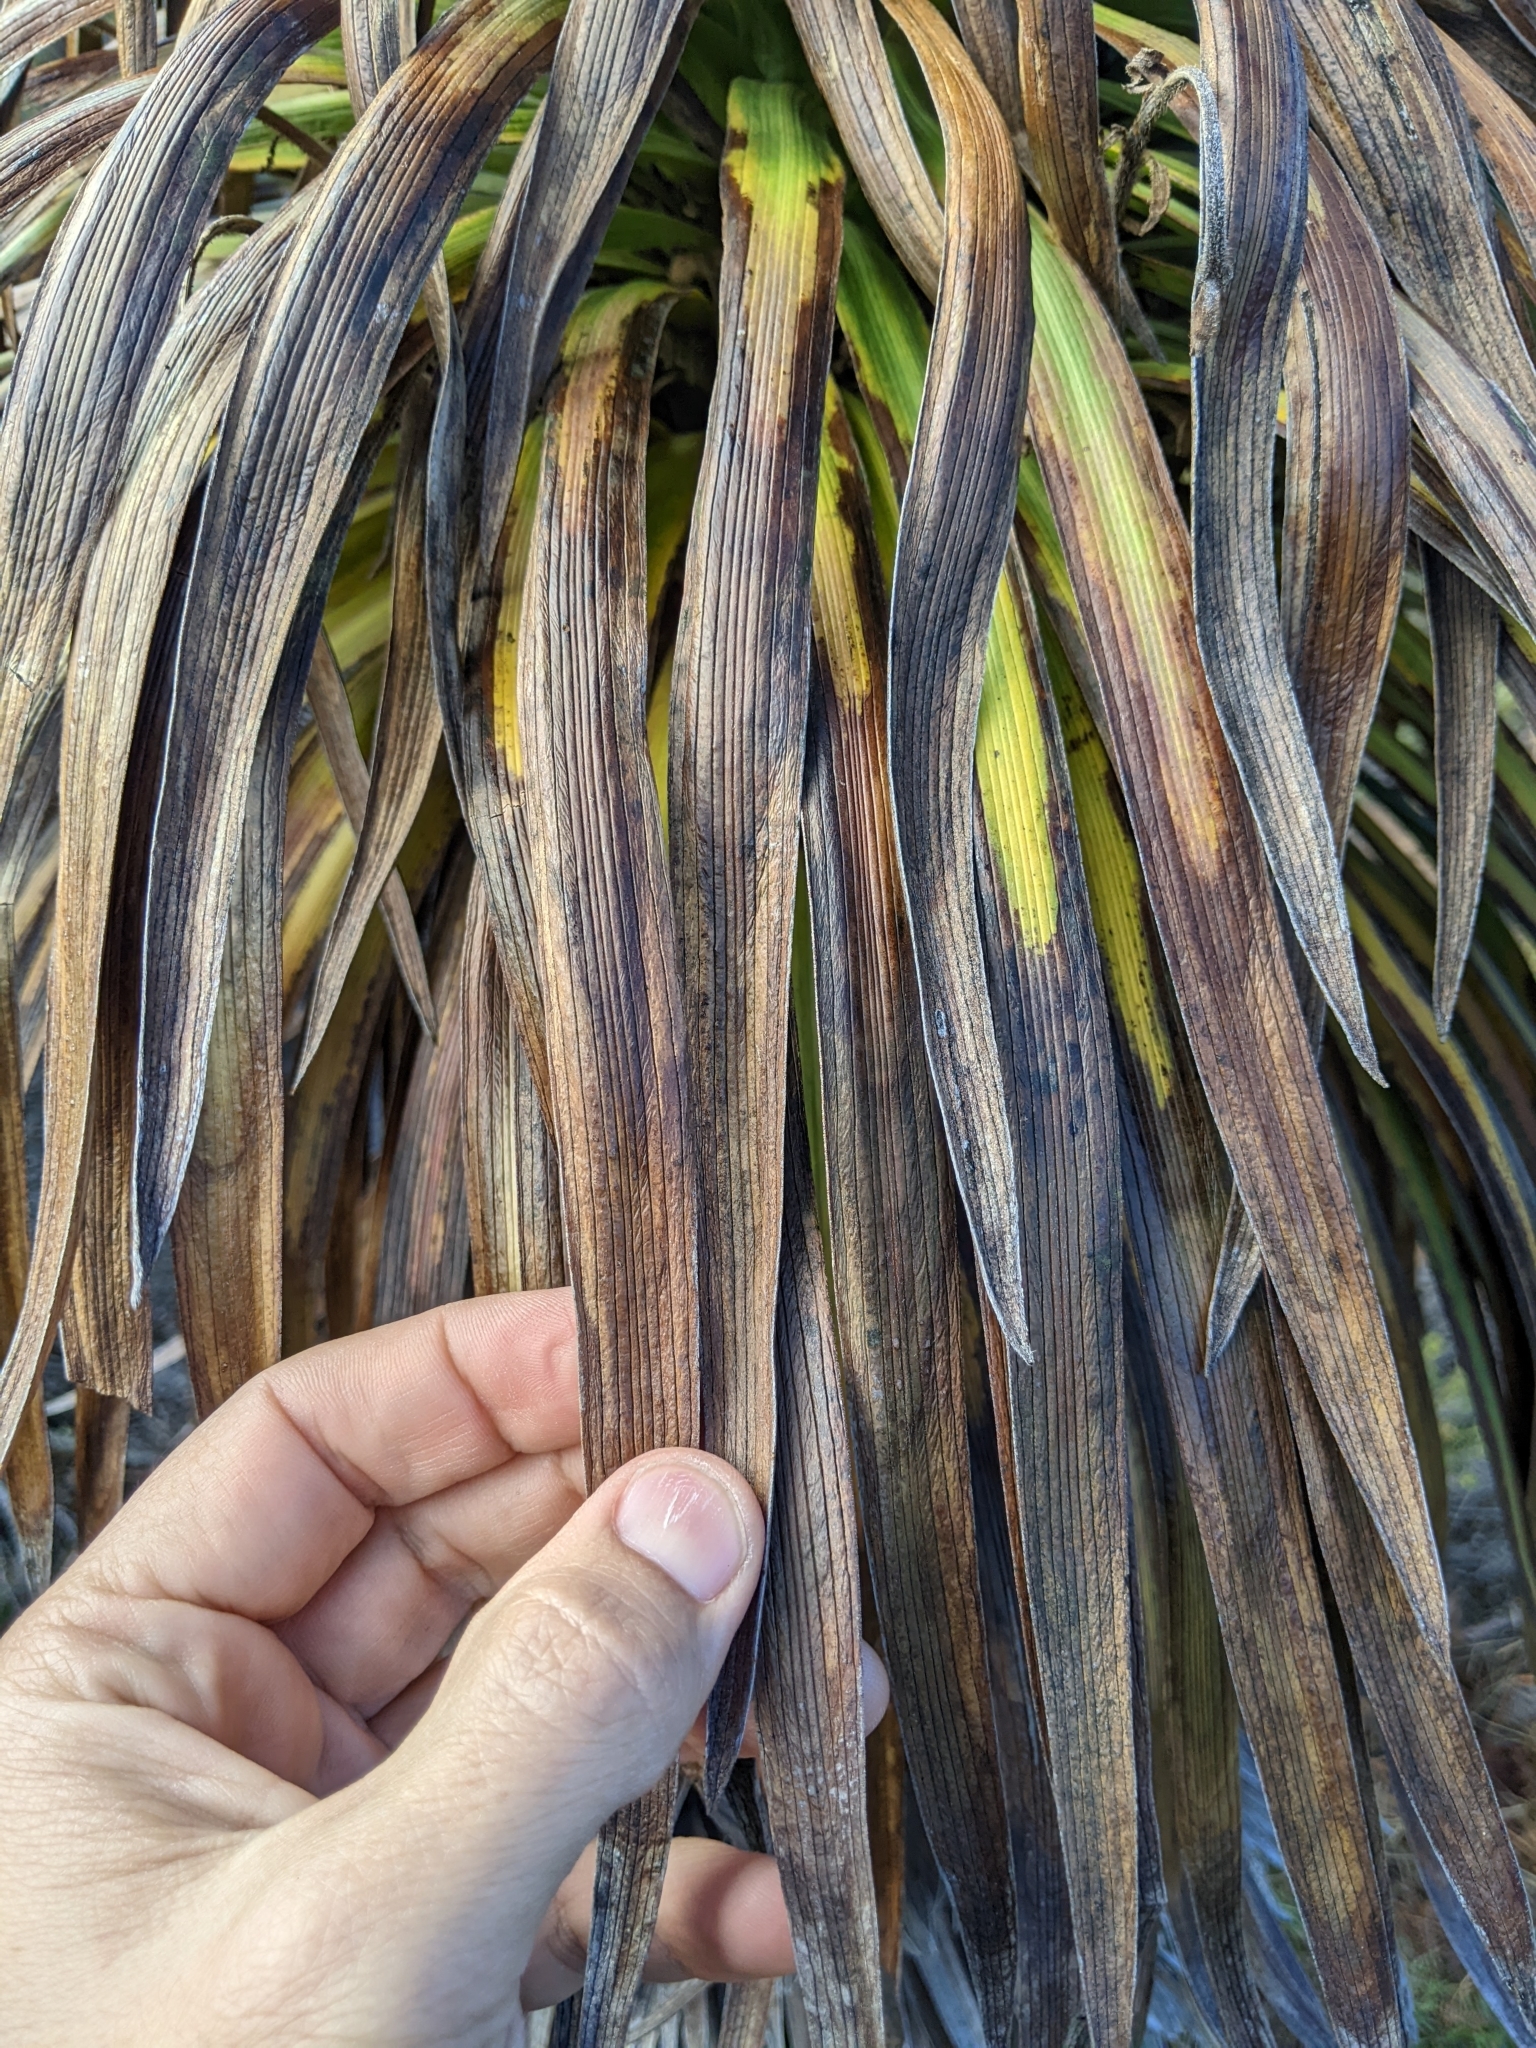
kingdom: Plantae
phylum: Tracheophyta
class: Magnoliopsida
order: Asterales
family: Asteraceae
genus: Argyroxiphium
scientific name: Argyroxiphium grayanum
